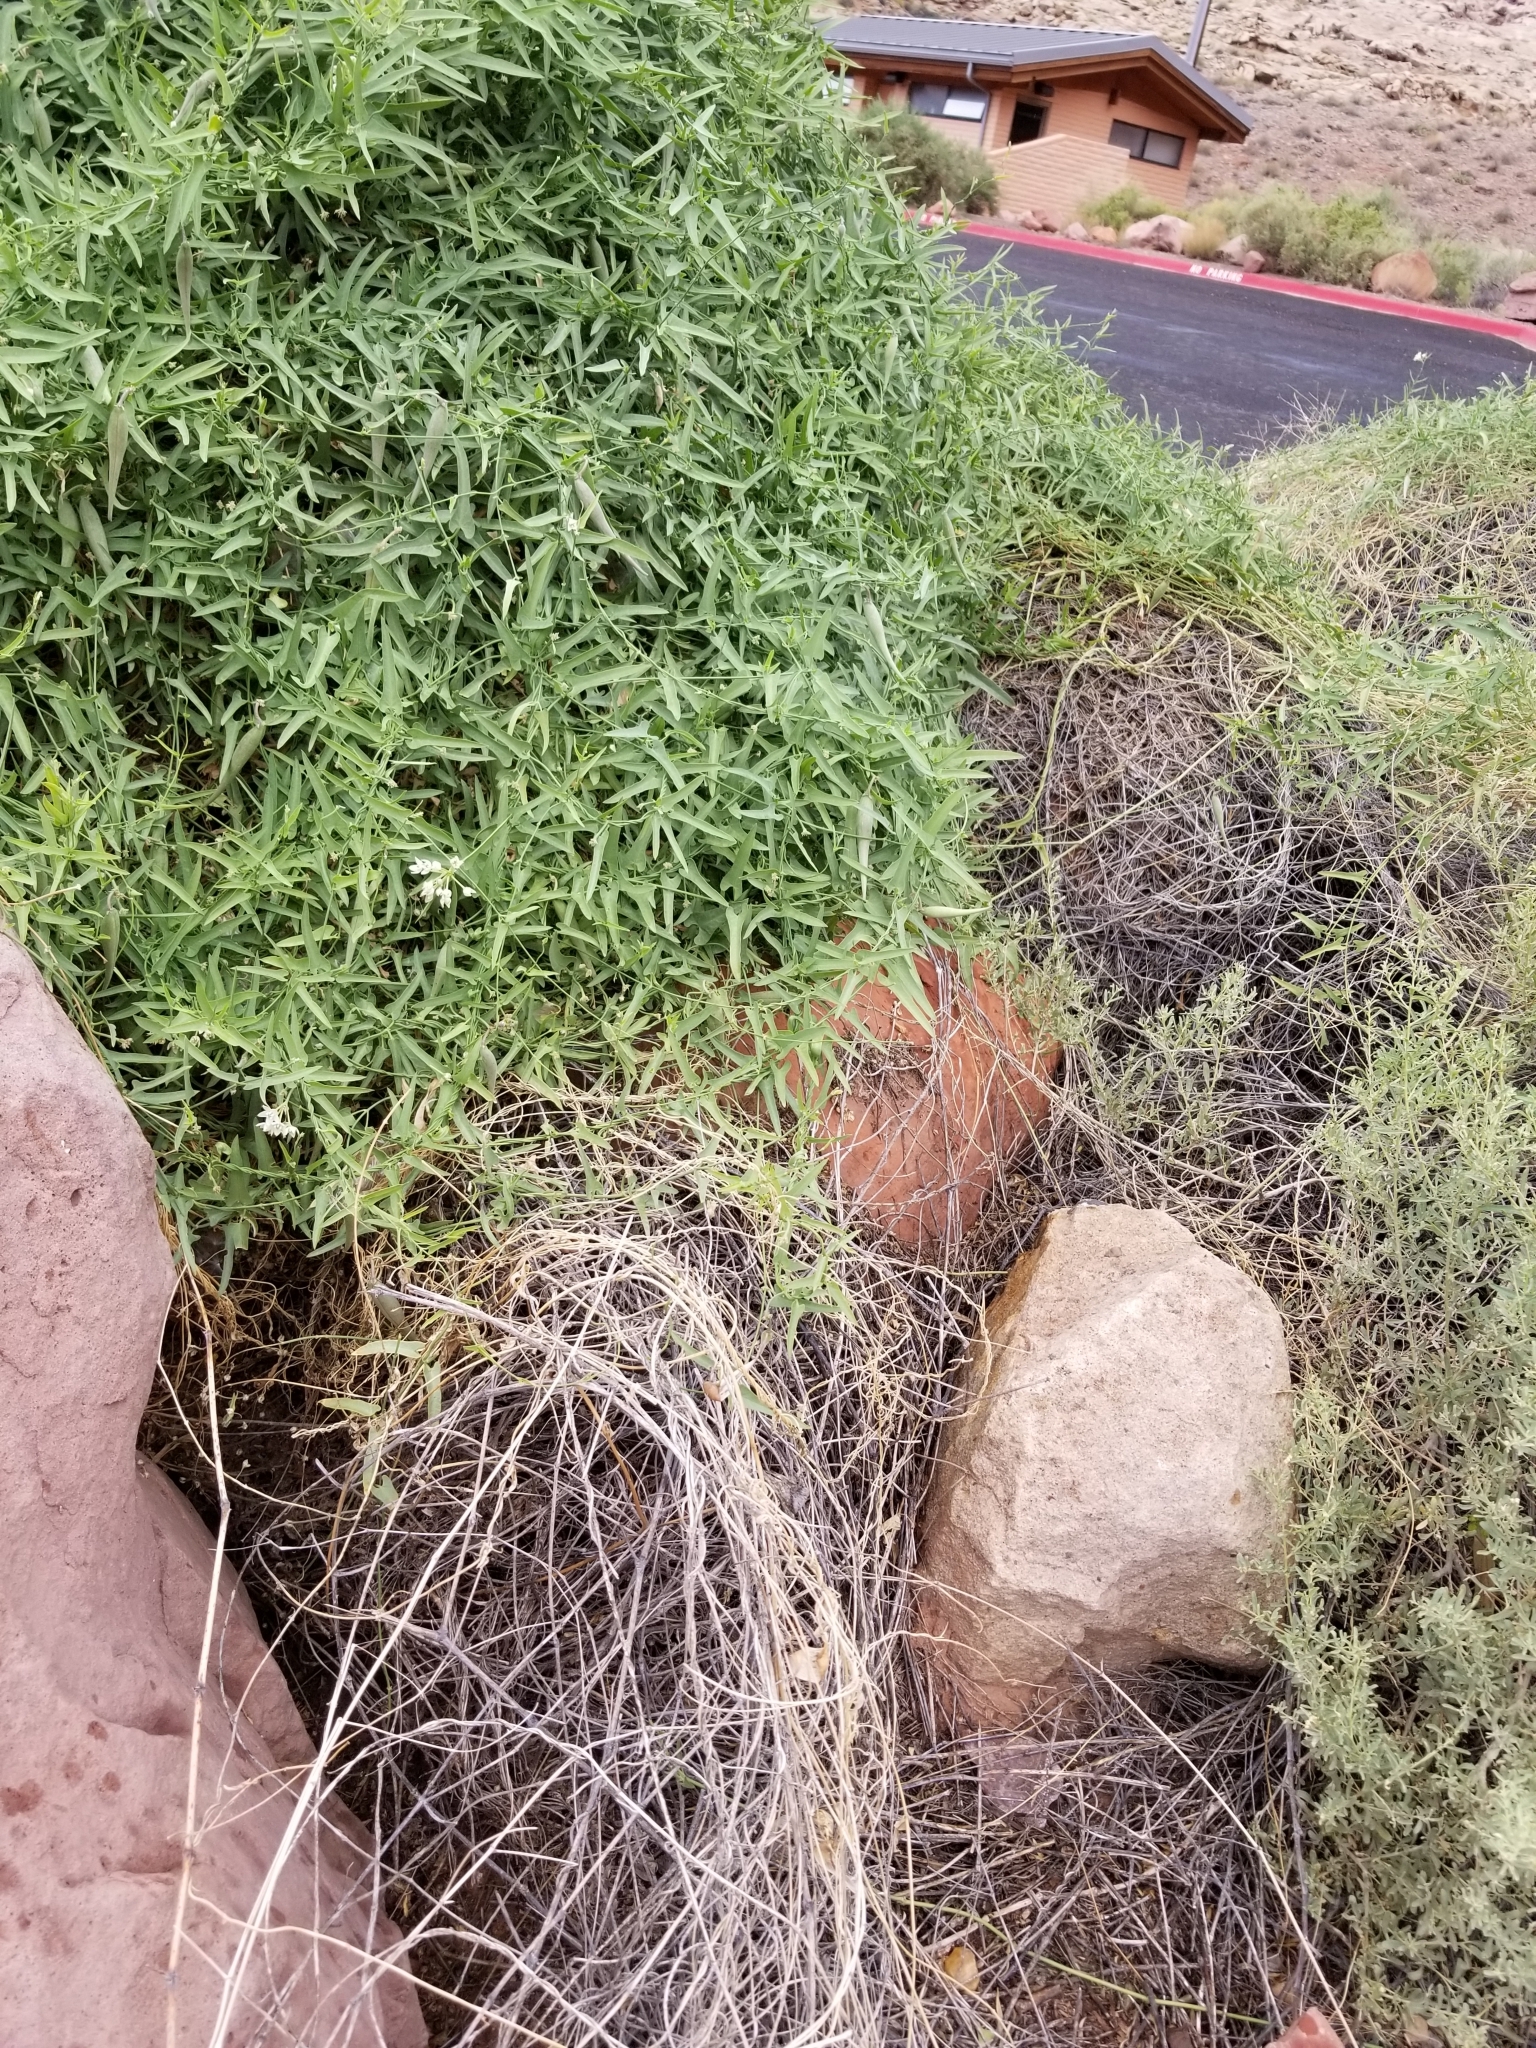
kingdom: Plantae
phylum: Tracheophyta
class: Magnoliopsida
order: Gentianales
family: Apocynaceae
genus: Funastrum
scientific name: Funastrum heterophyllum
